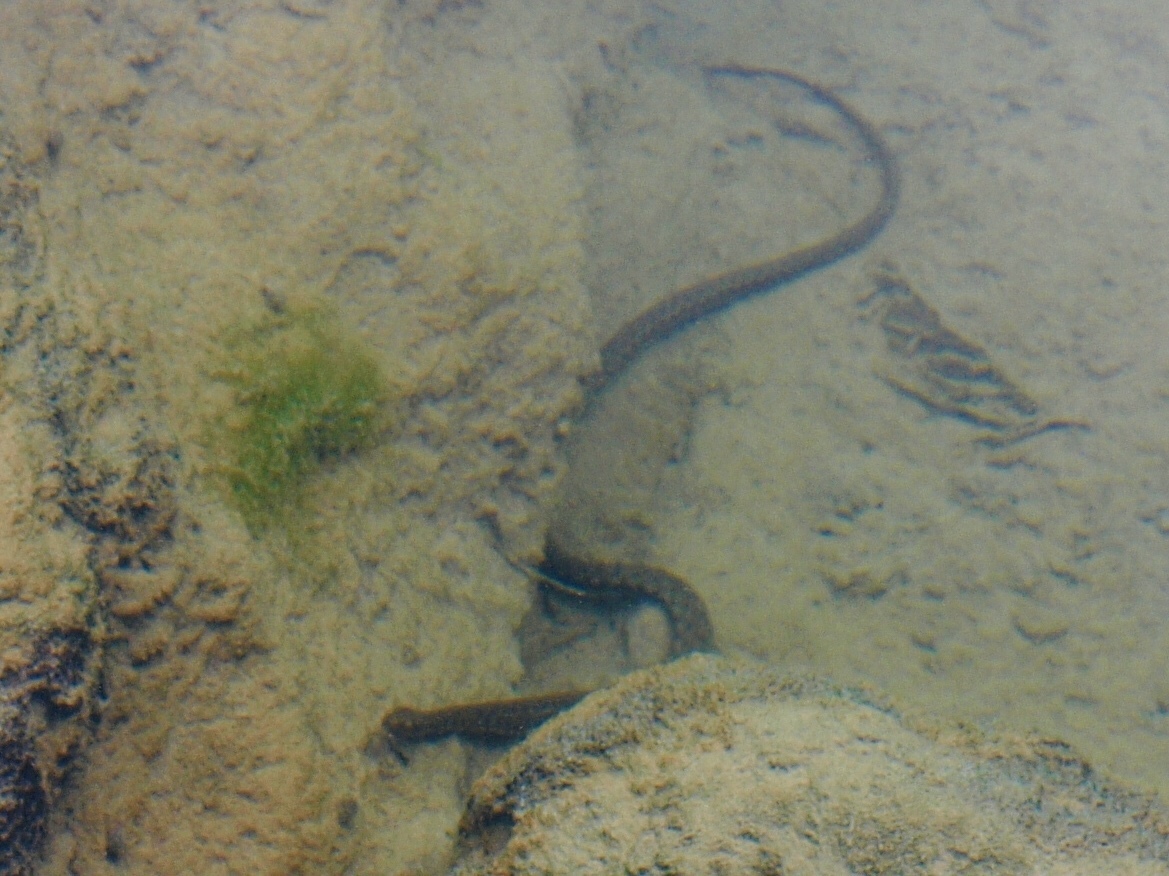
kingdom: Animalia
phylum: Chordata
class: Squamata
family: Colubridae
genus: Natrix
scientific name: Natrix tessellata
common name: Dice snake
